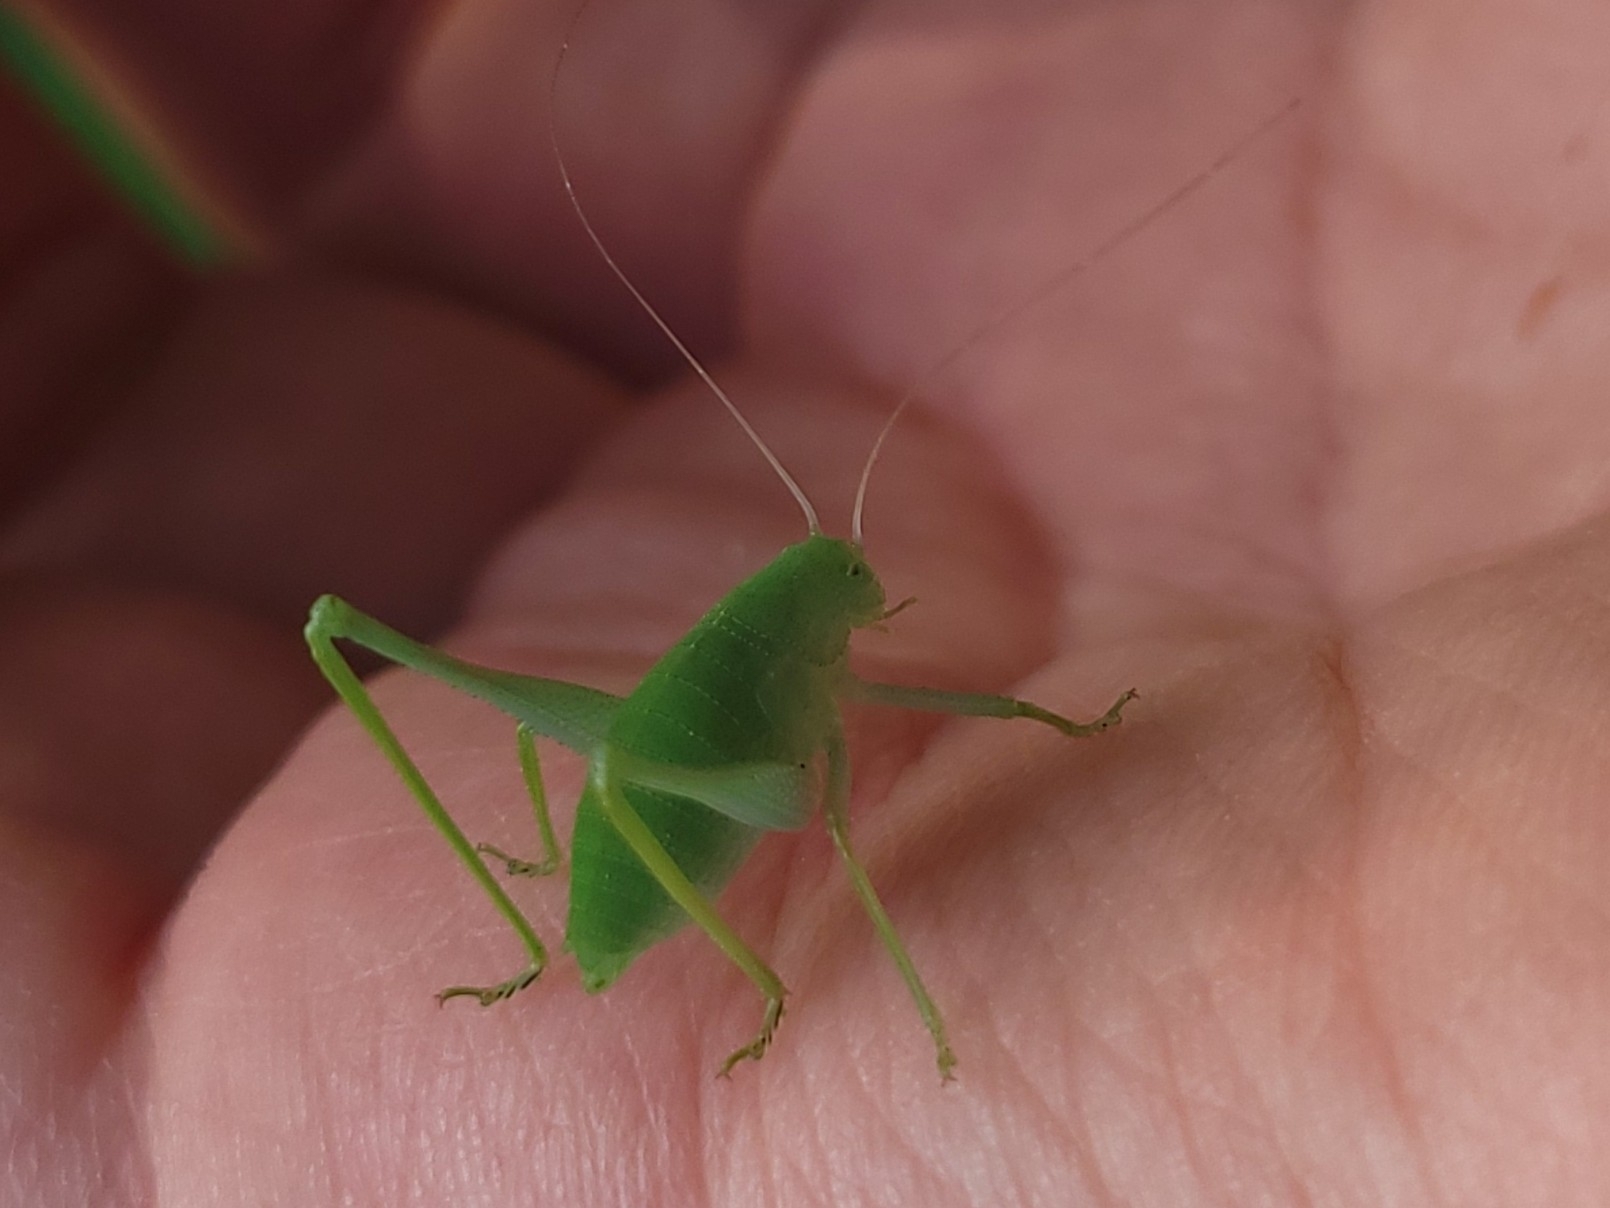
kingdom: Animalia
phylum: Arthropoda
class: Insecta
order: Orthoptera
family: Tettigoniidae
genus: Amblycorypha
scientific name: Amblycorypha oblongifolia
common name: Oblong-winged katydid
